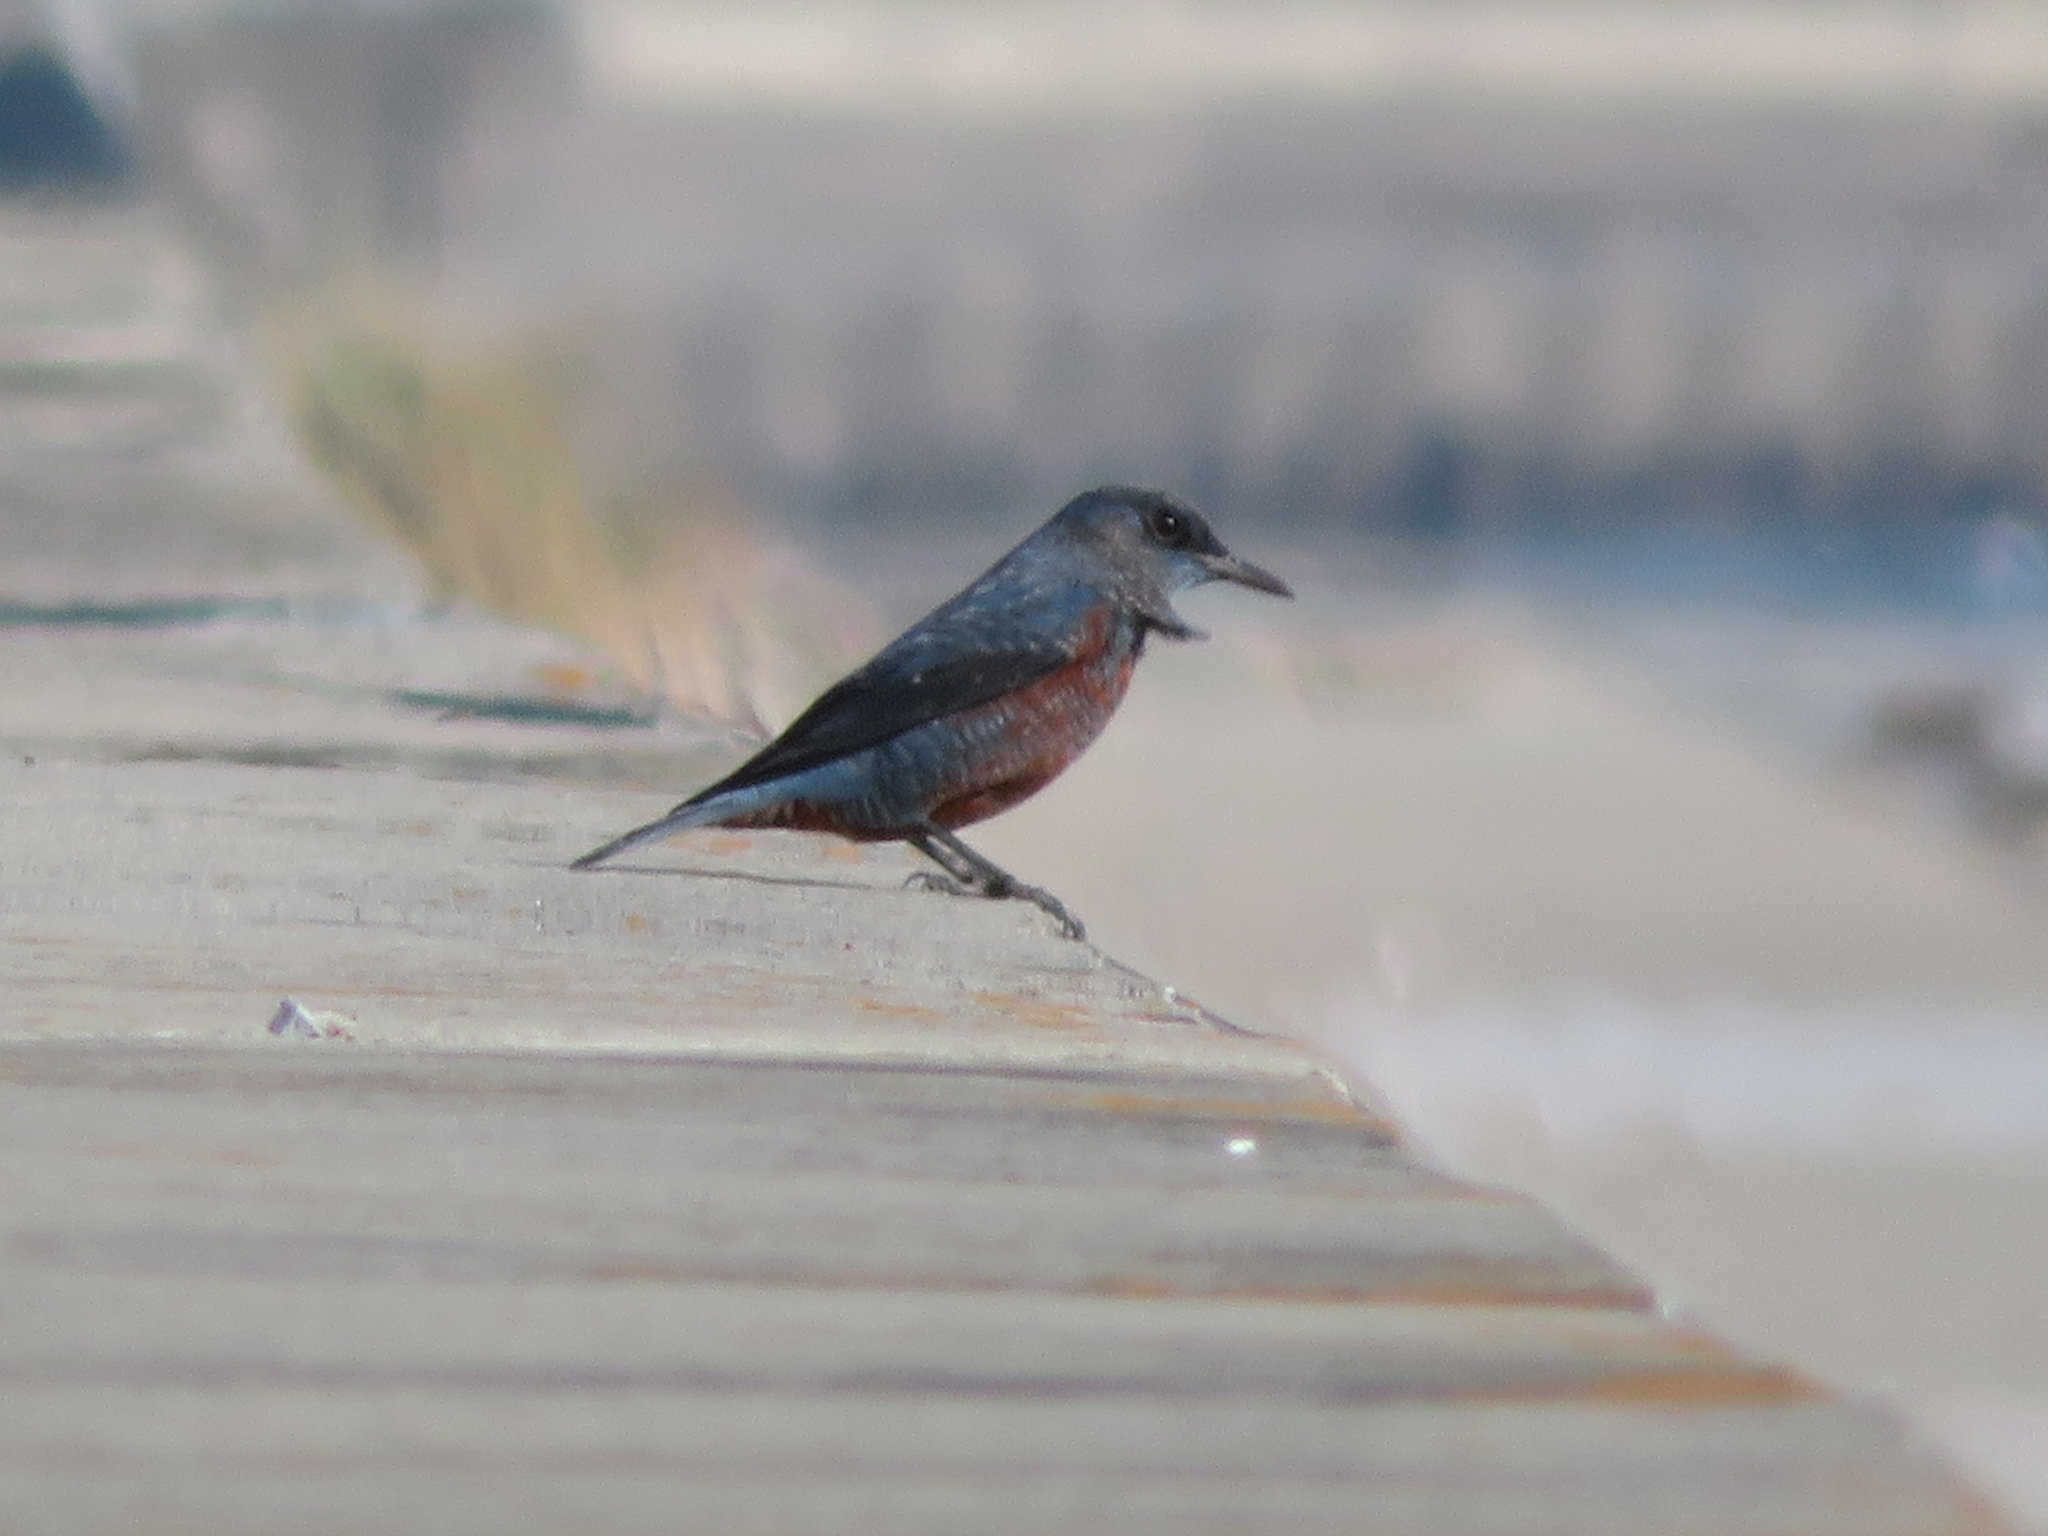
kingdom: Animalia
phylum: Chordata
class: Aves
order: Passeriformes
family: Muscicapidae
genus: Monticola
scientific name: Monticola solitarius
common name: Blue rock thrush
